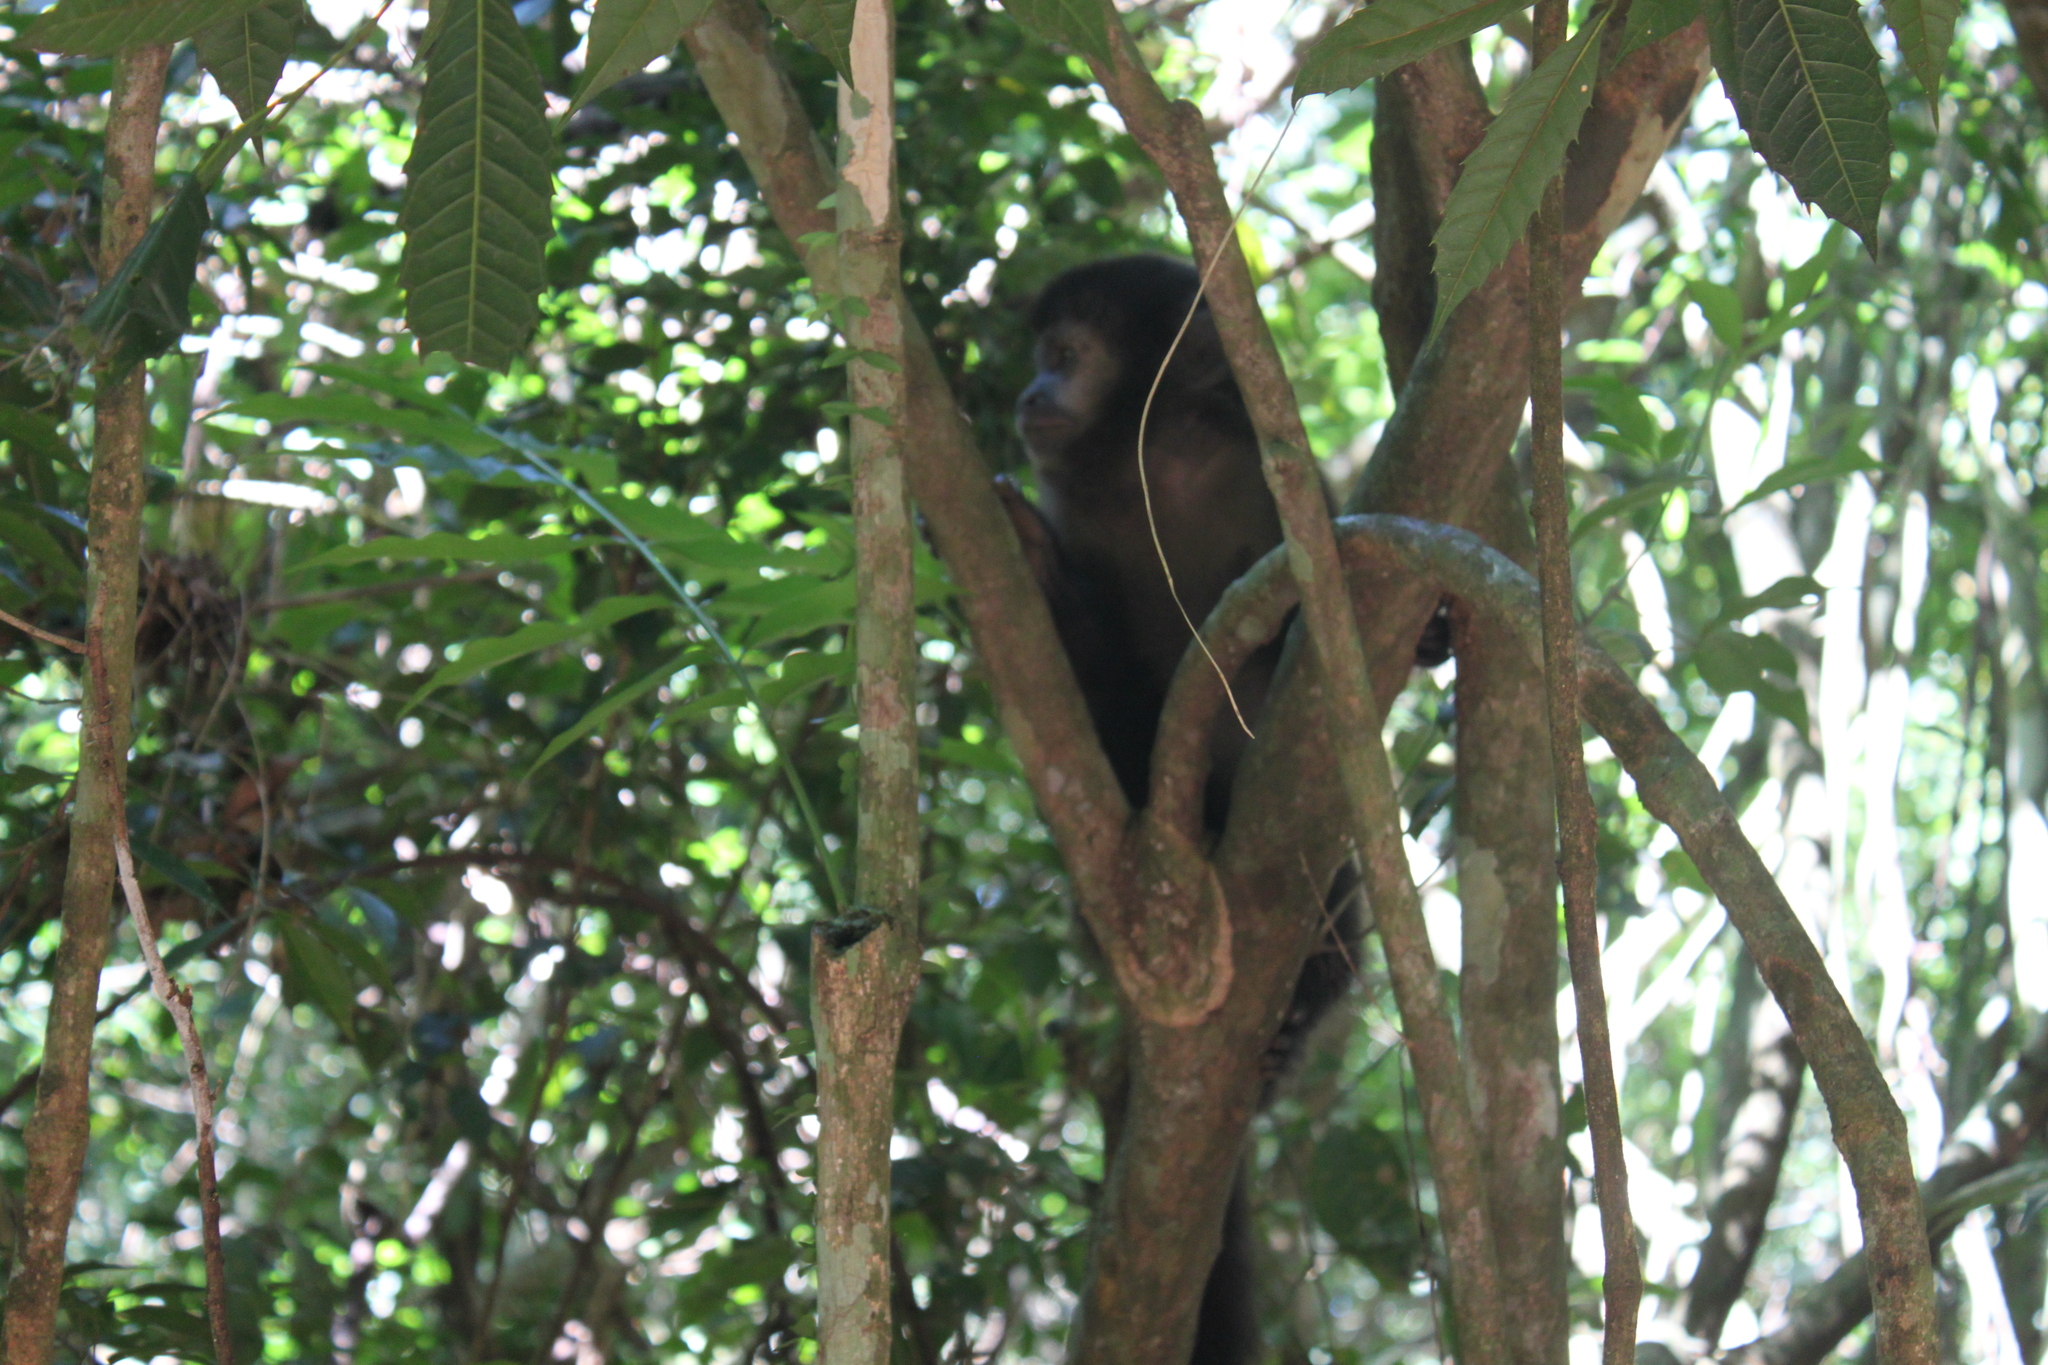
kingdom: Animalia
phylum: Chordata
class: Mammalia
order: Primates
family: Cebidae
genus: Sapajus
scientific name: Sapajus nigritus
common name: Black capuchin
